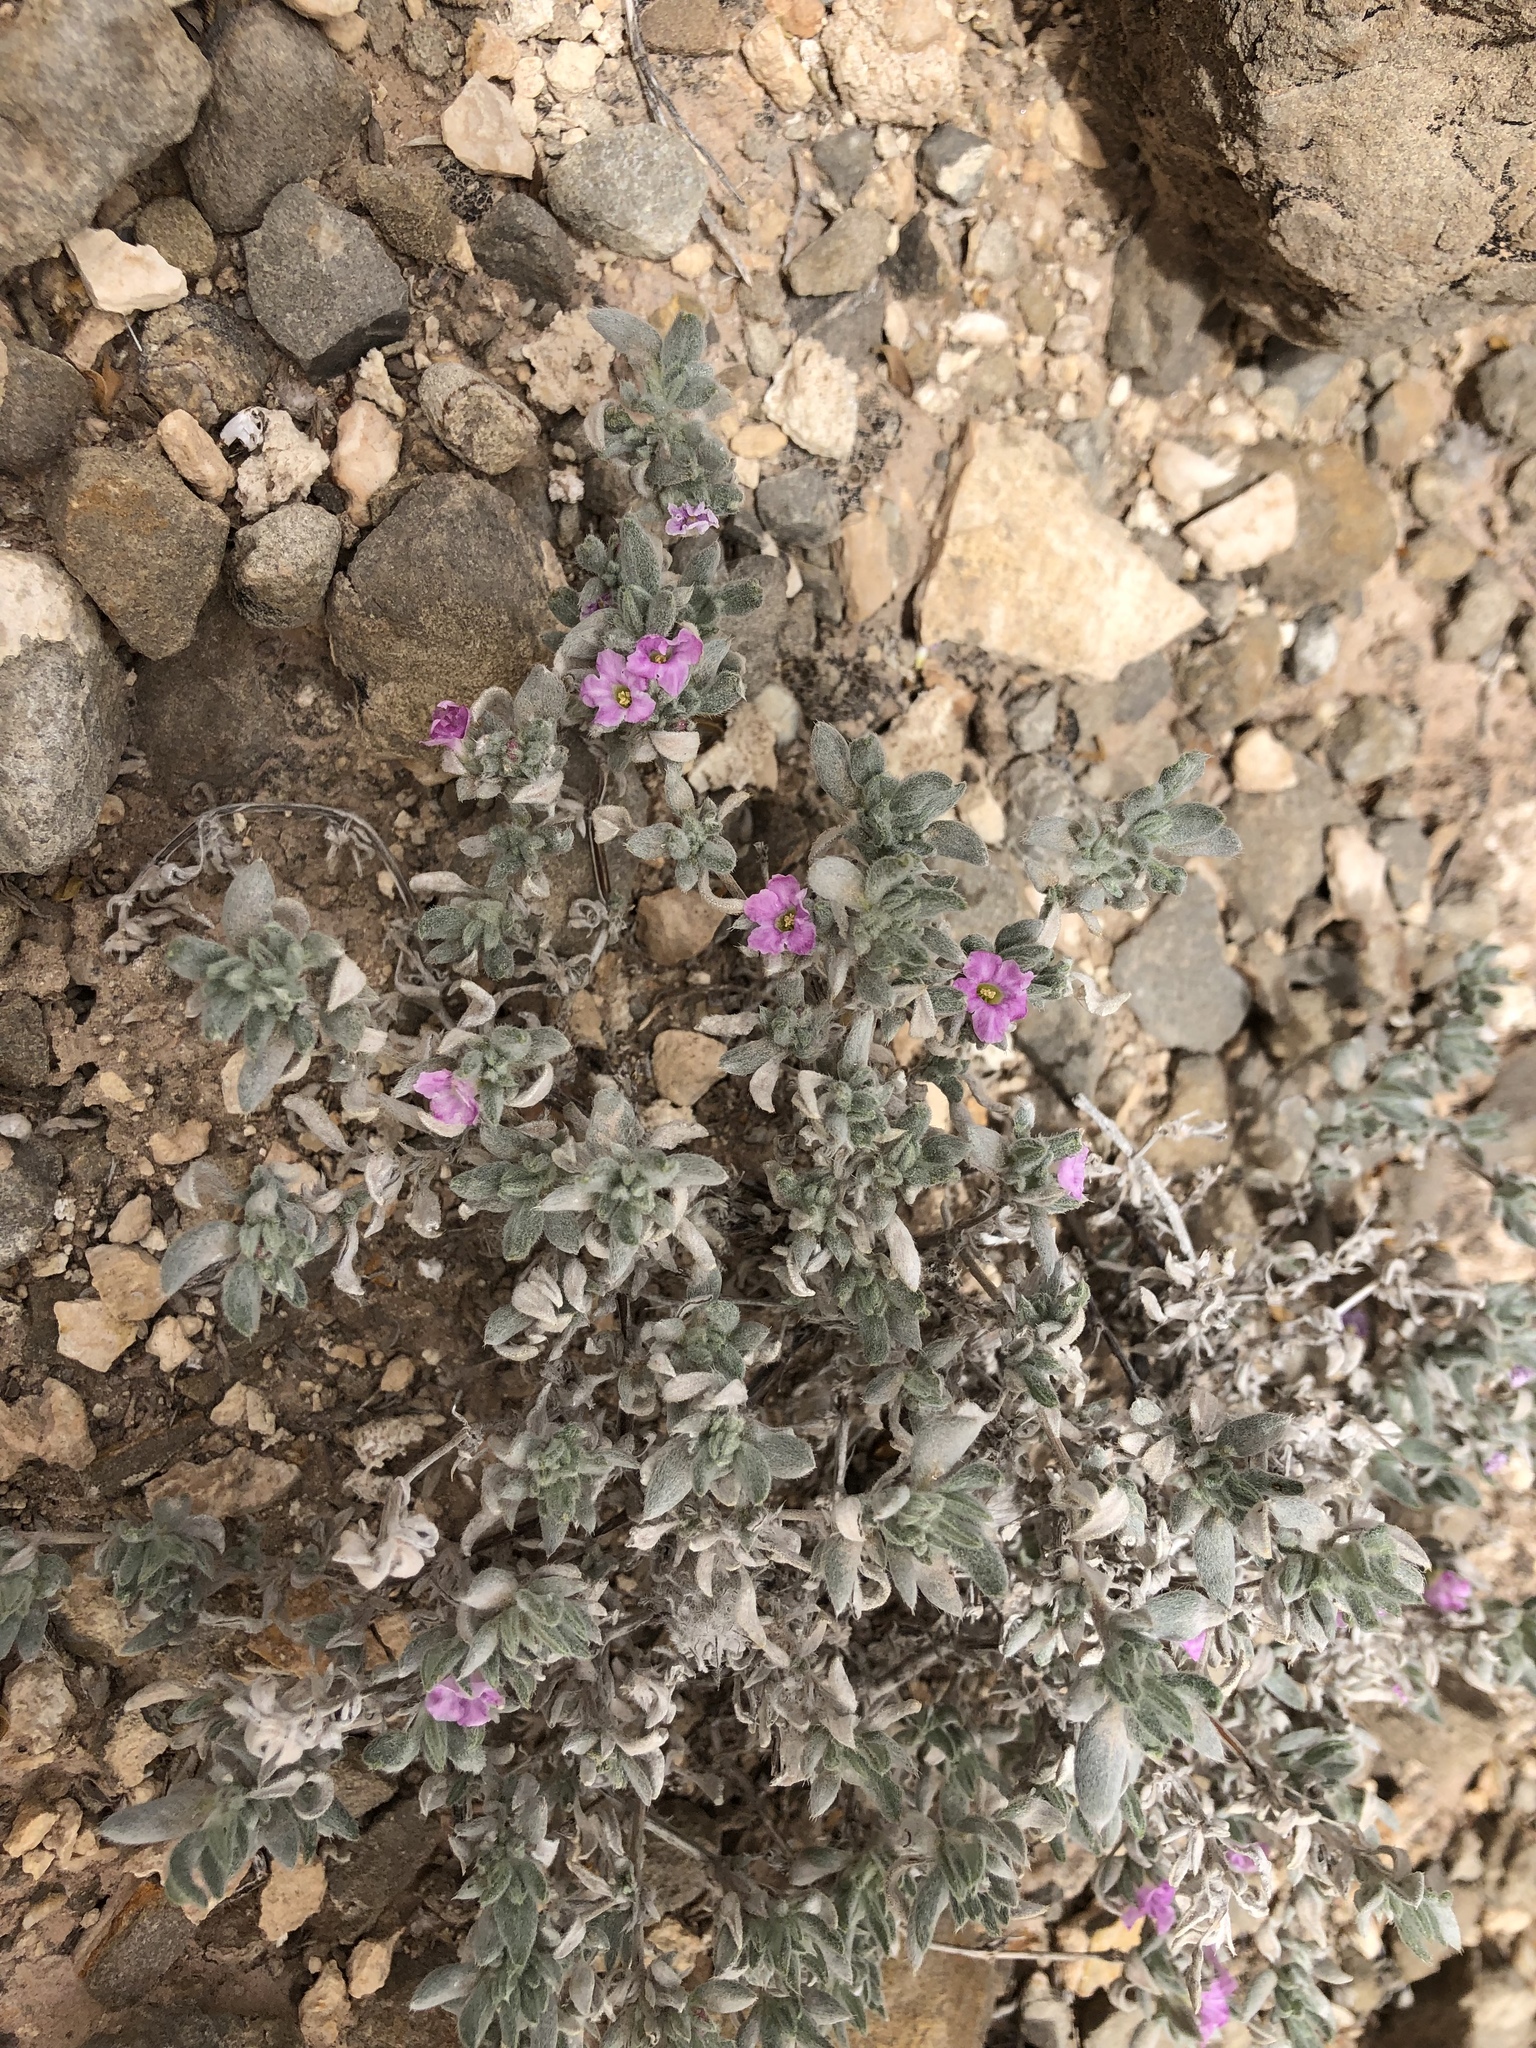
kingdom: Plantae
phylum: Tracheophyta
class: Magnoliopsida
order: Boraginales
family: Ehretiaceae
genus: Tiquilia
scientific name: Tiquilia canescens
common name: Hairy tiquilia
